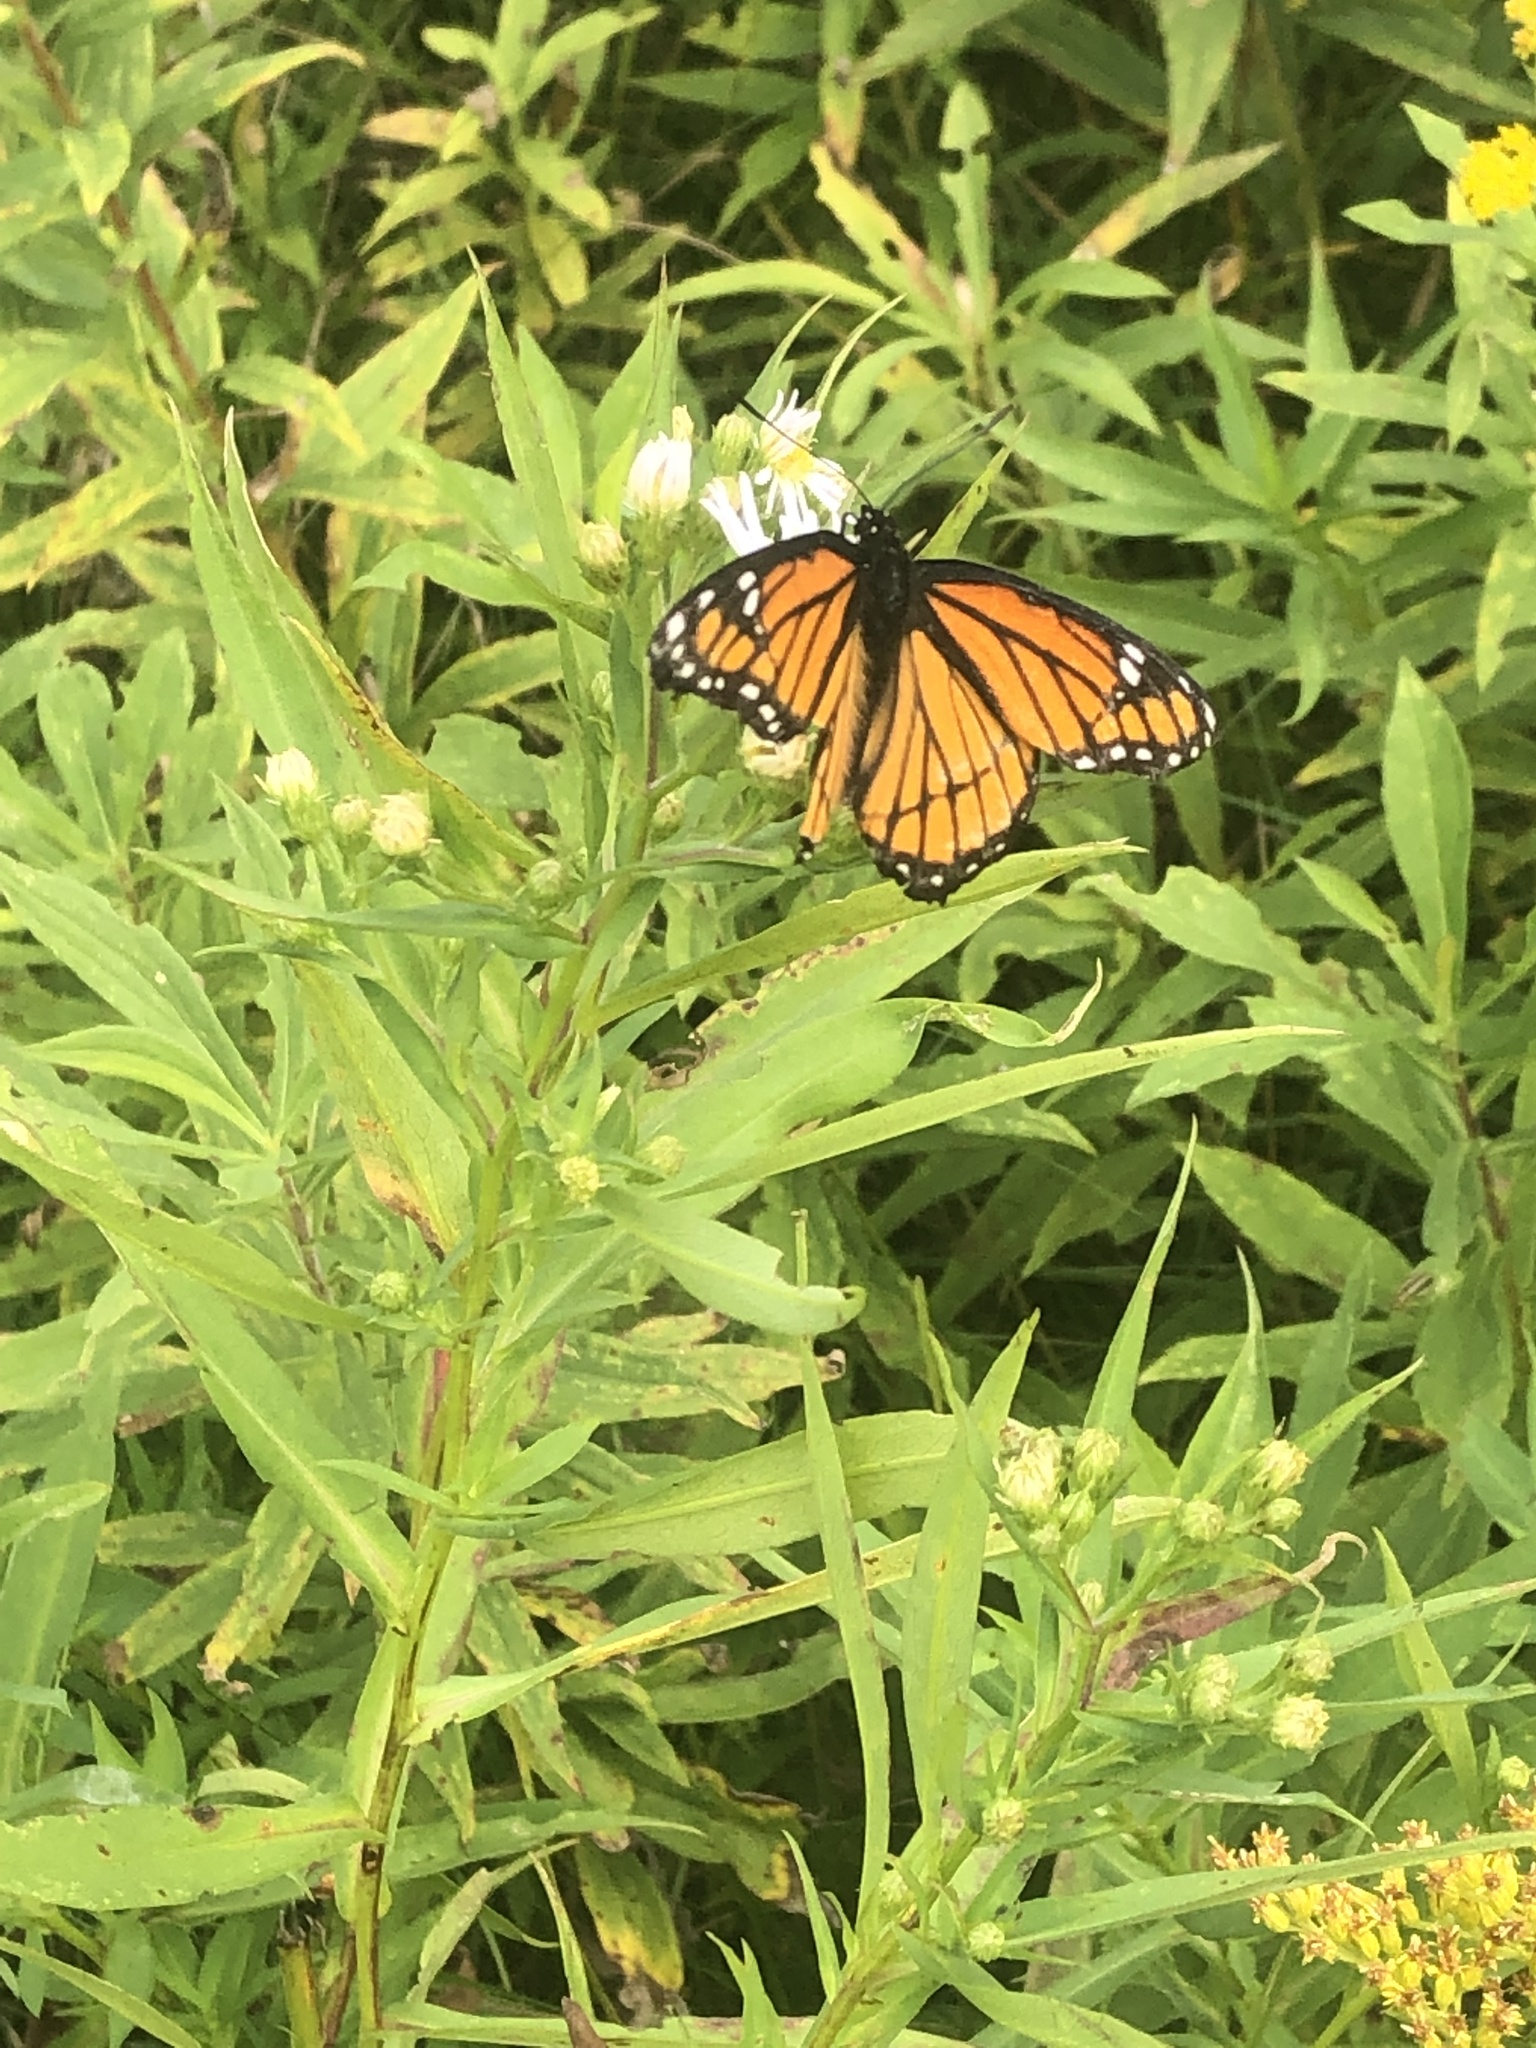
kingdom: Animalia
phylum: Arthropoda
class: Insecta
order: Lepidoptera
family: Nymphalidae
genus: Limenitis
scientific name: Limenitis archippus
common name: Viceroy
